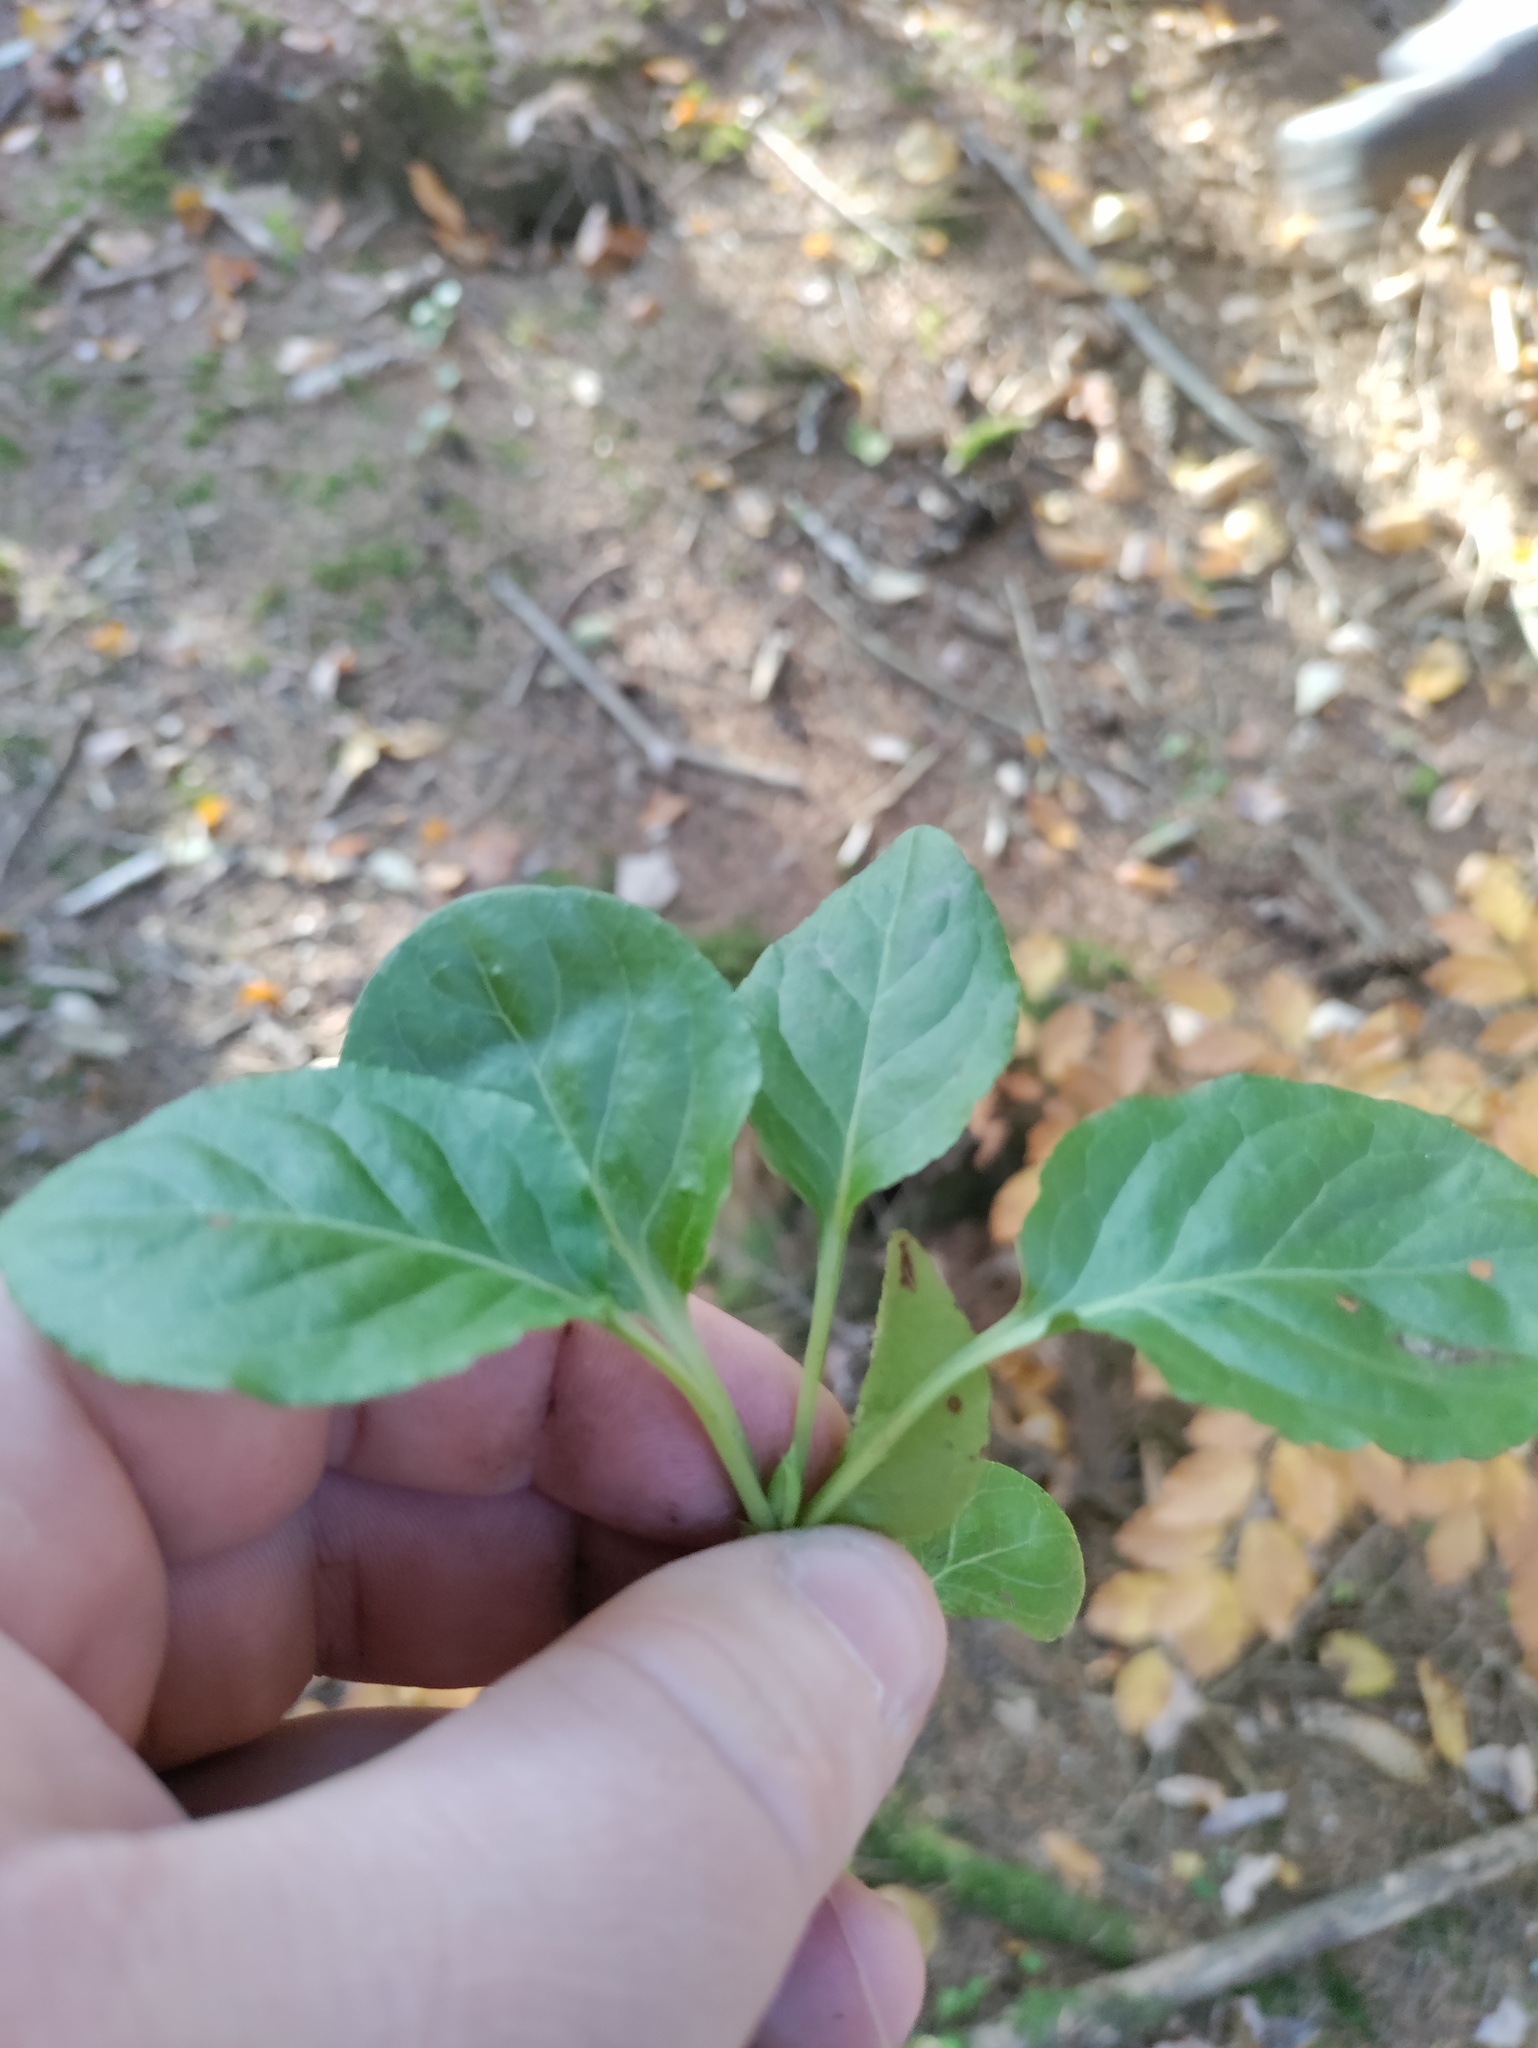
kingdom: Plantae
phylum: Tracheophyta
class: Magnoliopsida
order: Ericales
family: Ericaceae
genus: Pyrola
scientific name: Pyrola minor
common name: Common wintergreen
